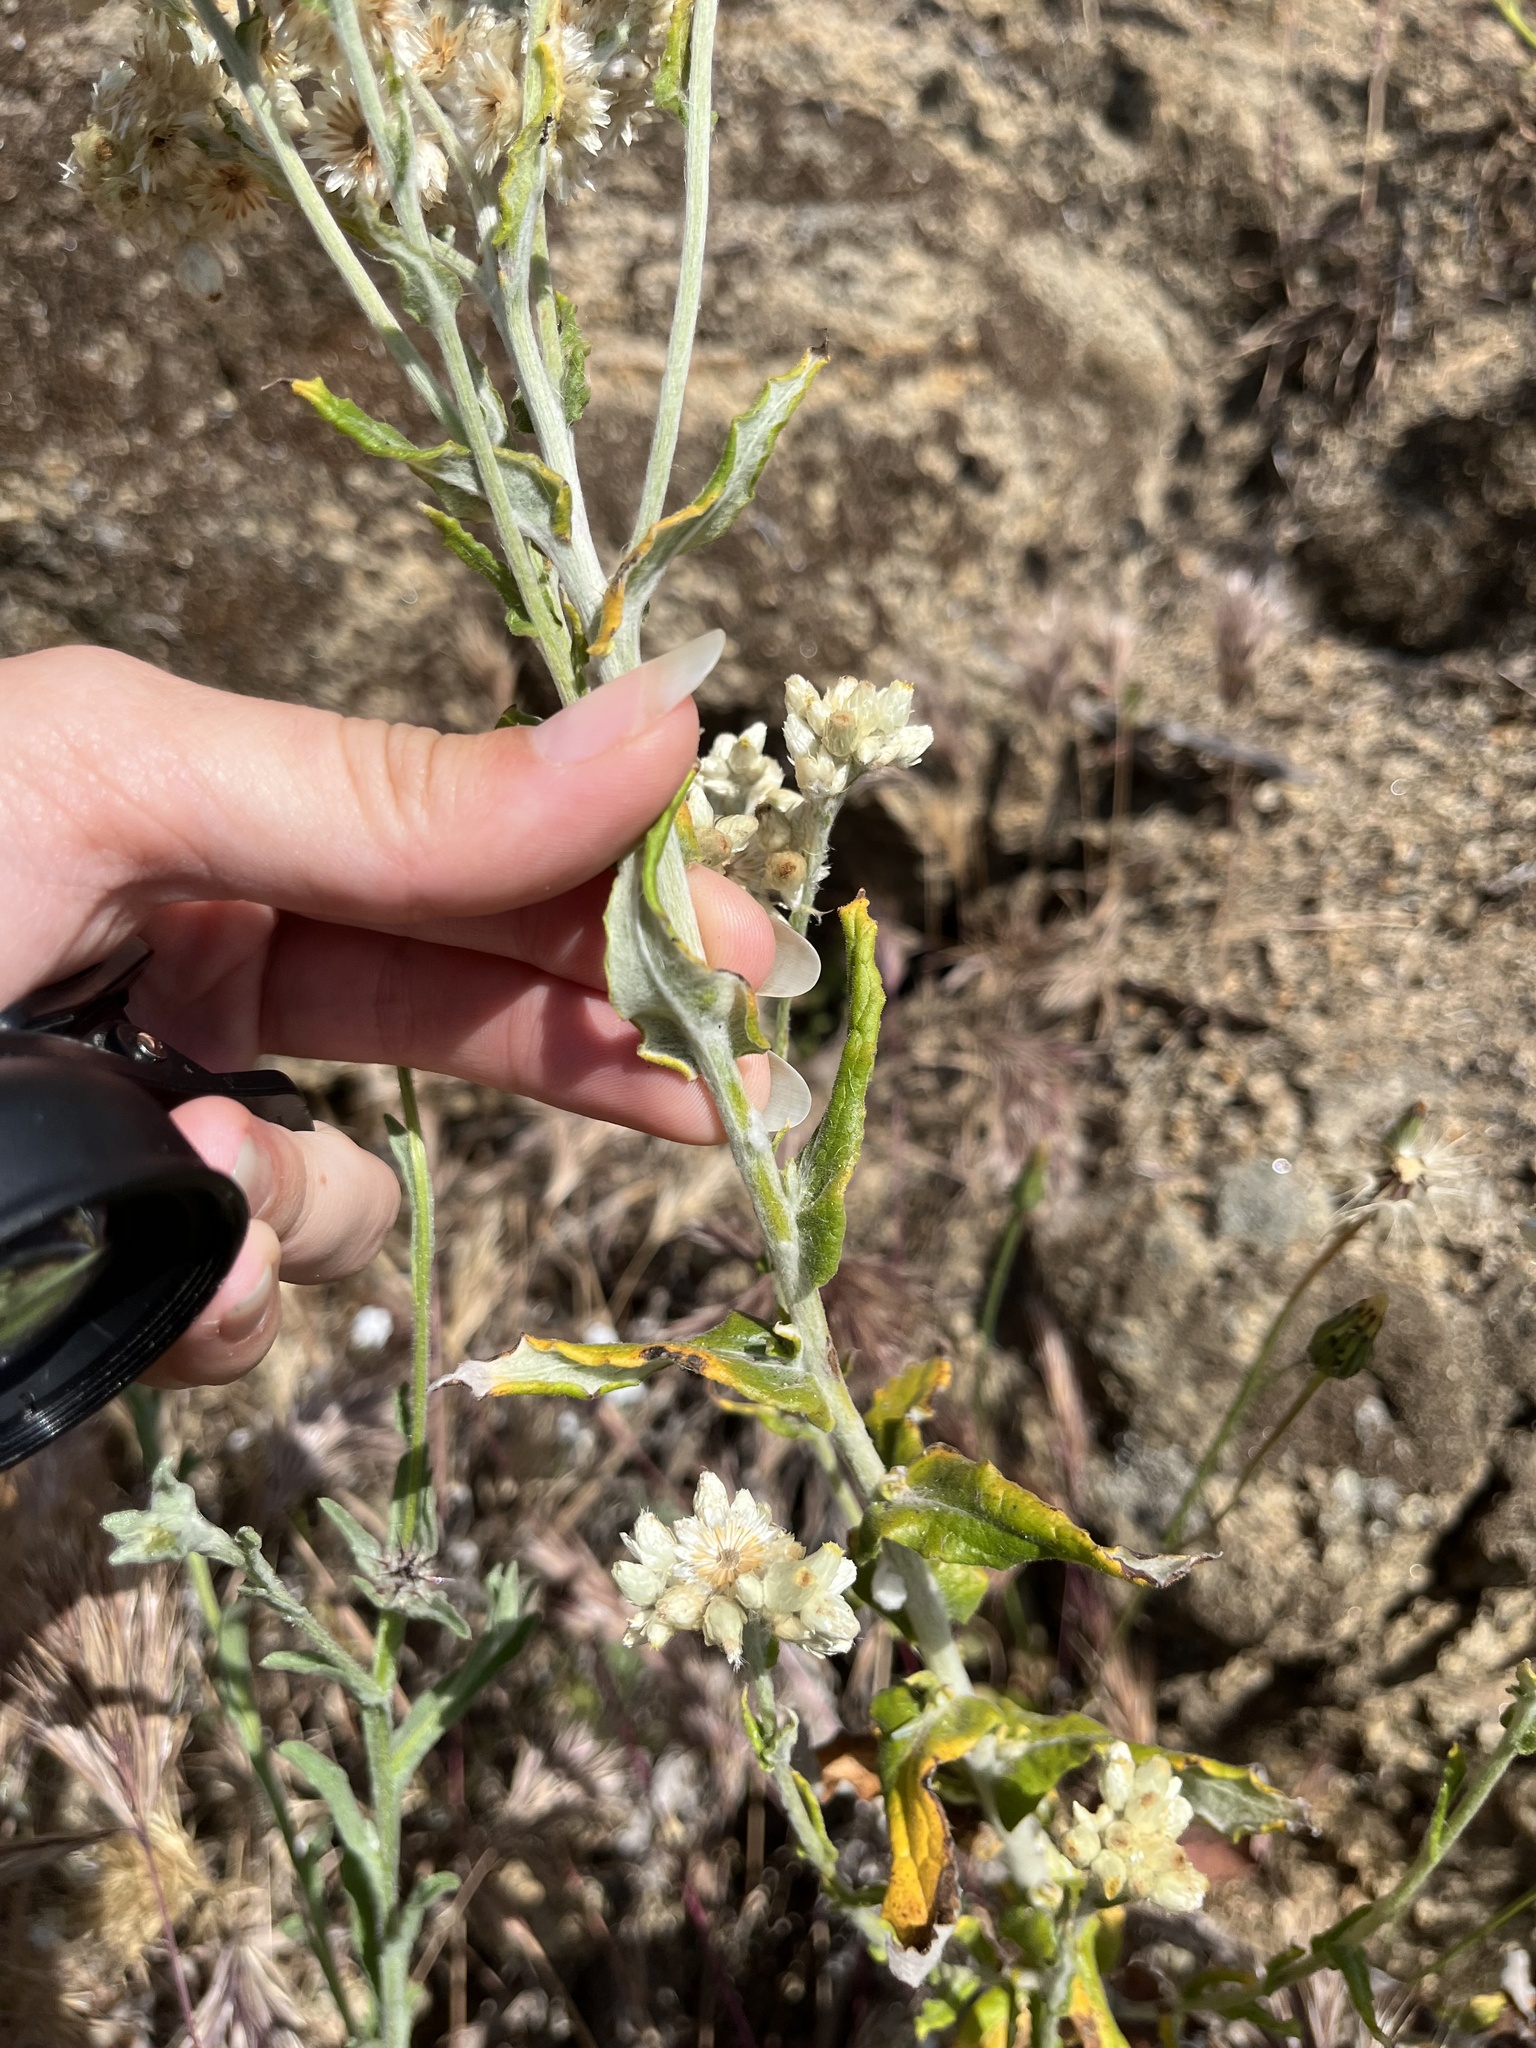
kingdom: Plantae
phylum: Tracheophyta
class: Magnoliopsida
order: Asterales
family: Asteraceae
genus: Pseudognaphalium
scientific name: Pseudognaphalium biolettii
